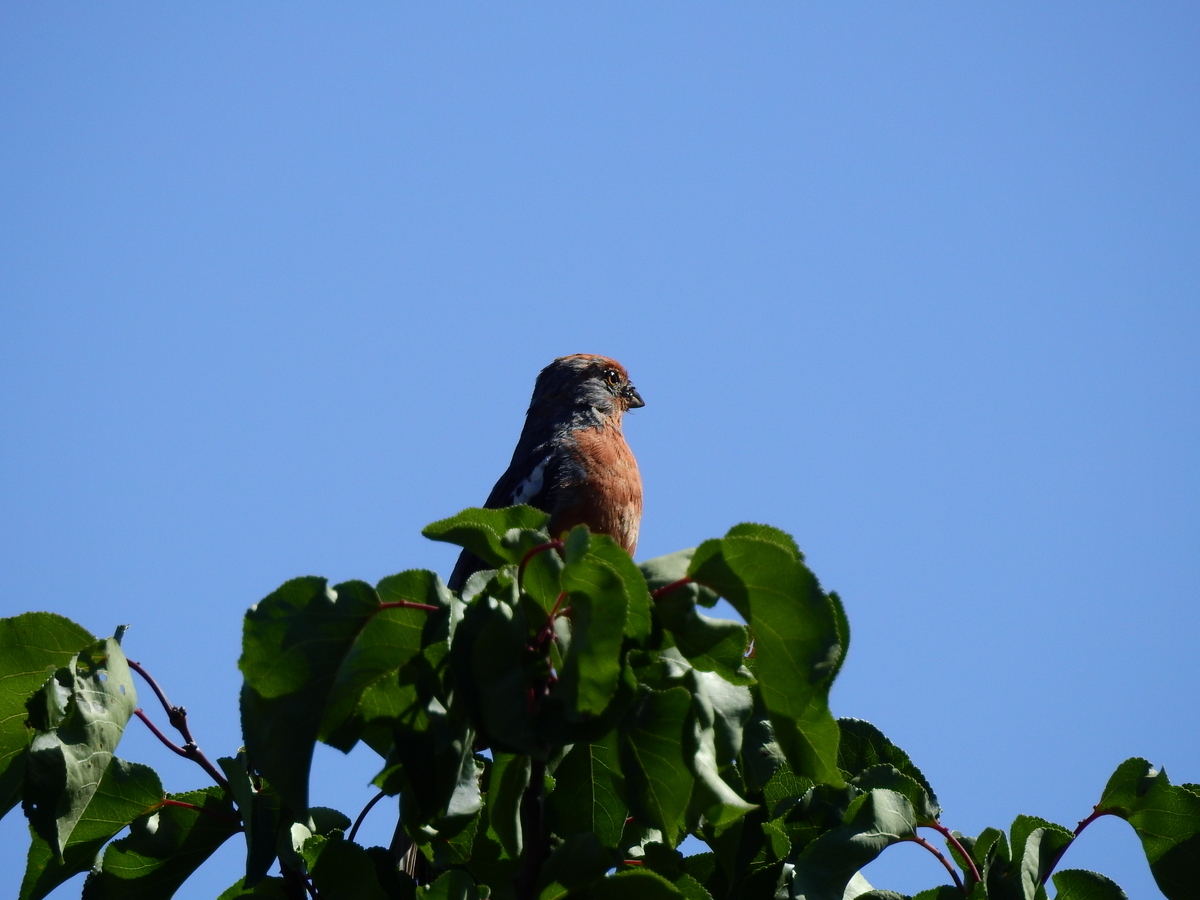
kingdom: Animalia
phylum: Chordata
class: Aves
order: Passeriformes
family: Cotingidae
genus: Phytotoma
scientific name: Phytotoma rutila
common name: White-tipped plantcutter
